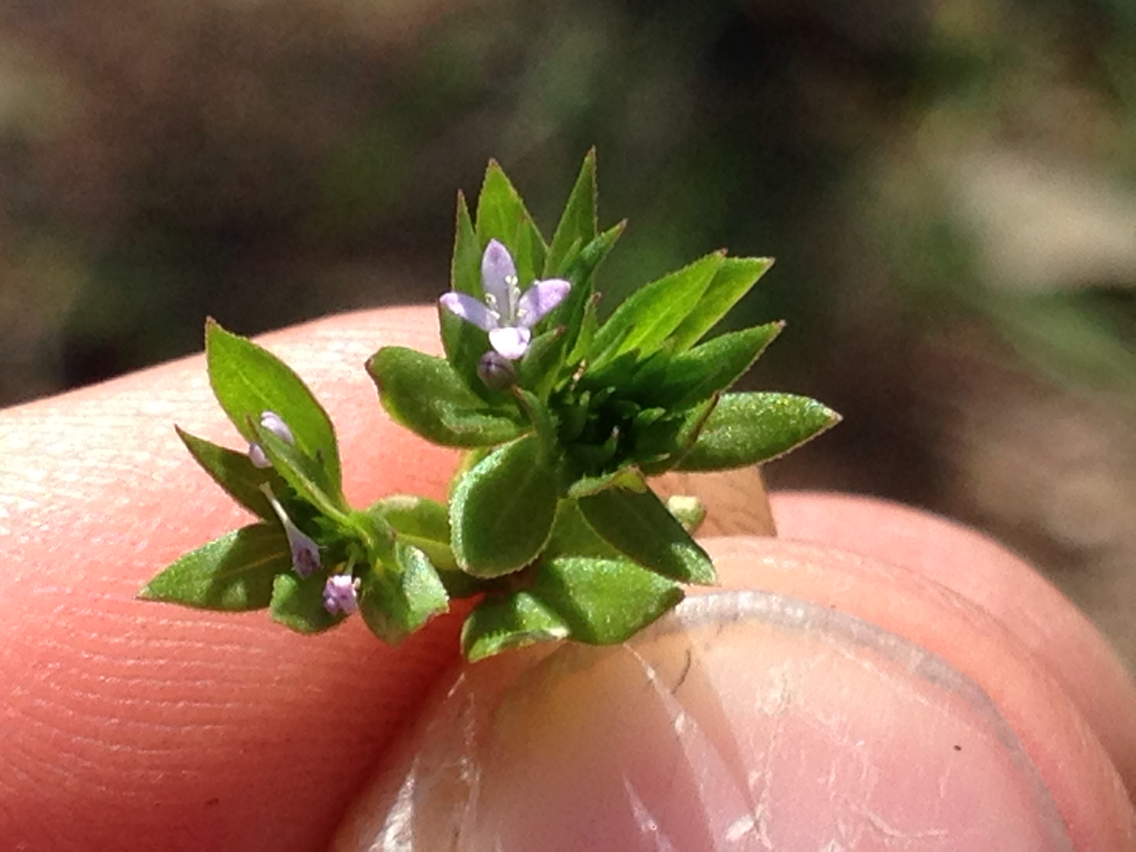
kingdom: Plantae
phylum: Tracheophyta
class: Magnoliopsida
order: Gentianales
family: Rubiaceae
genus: Sherardia
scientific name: Sherardia arvensis
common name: Field madder
